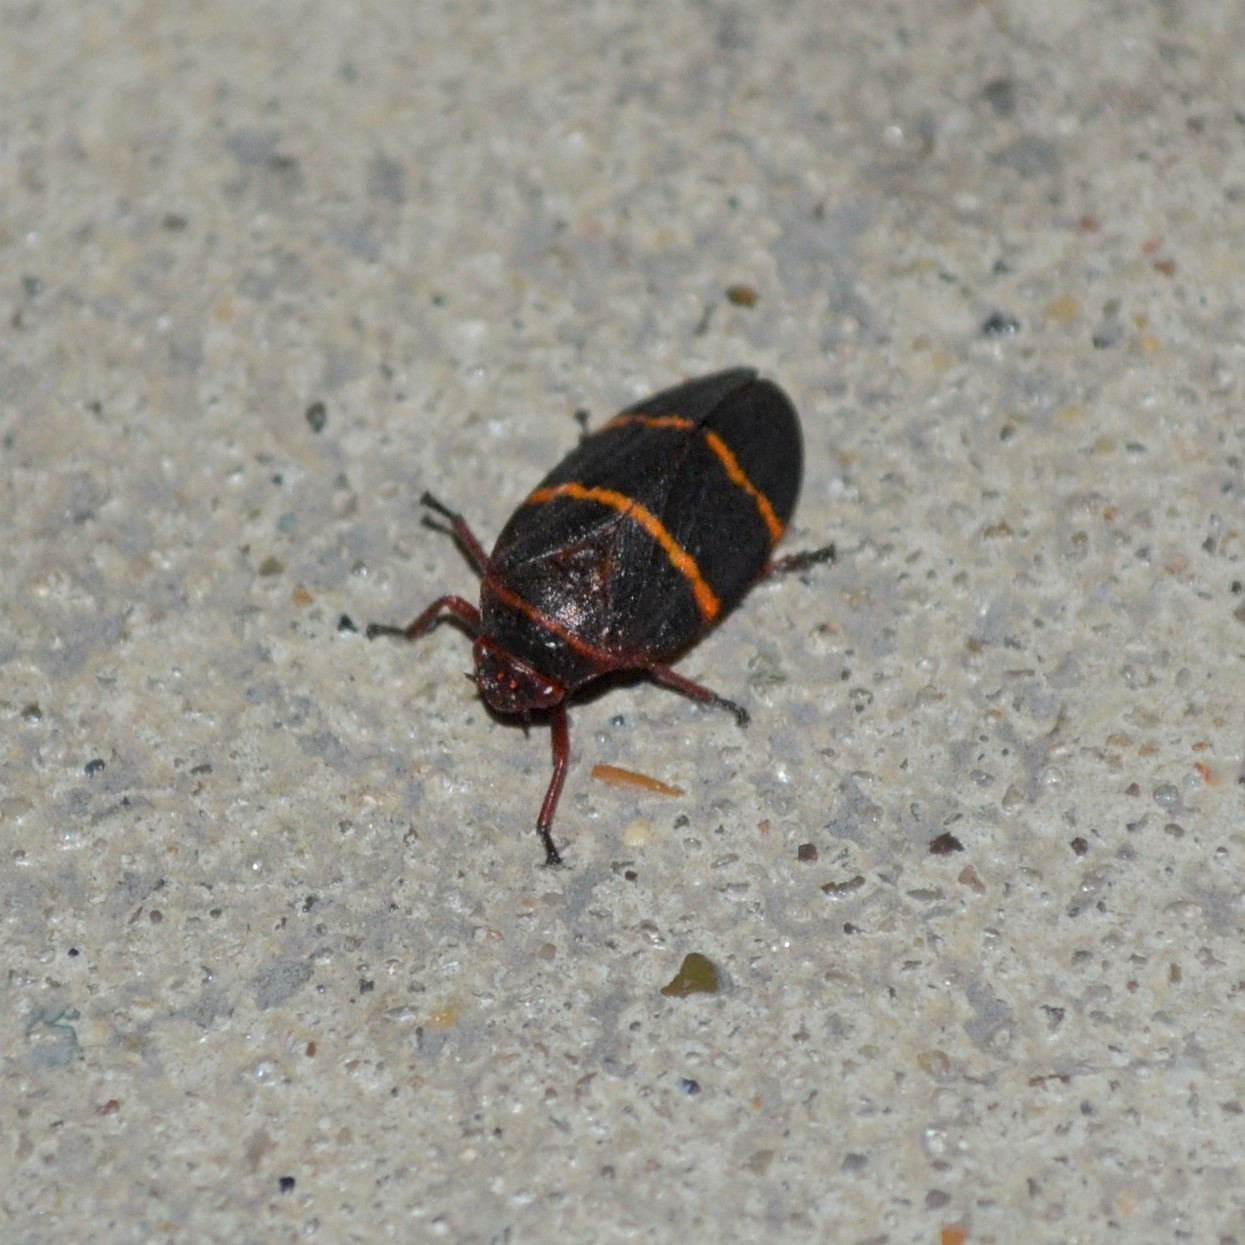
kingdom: Animalia
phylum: Arthropoda
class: Insecta
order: Hemiptera
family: Cercopidae
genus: Prosapia
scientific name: Prosapia bicincta
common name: Twolined spittlebug
